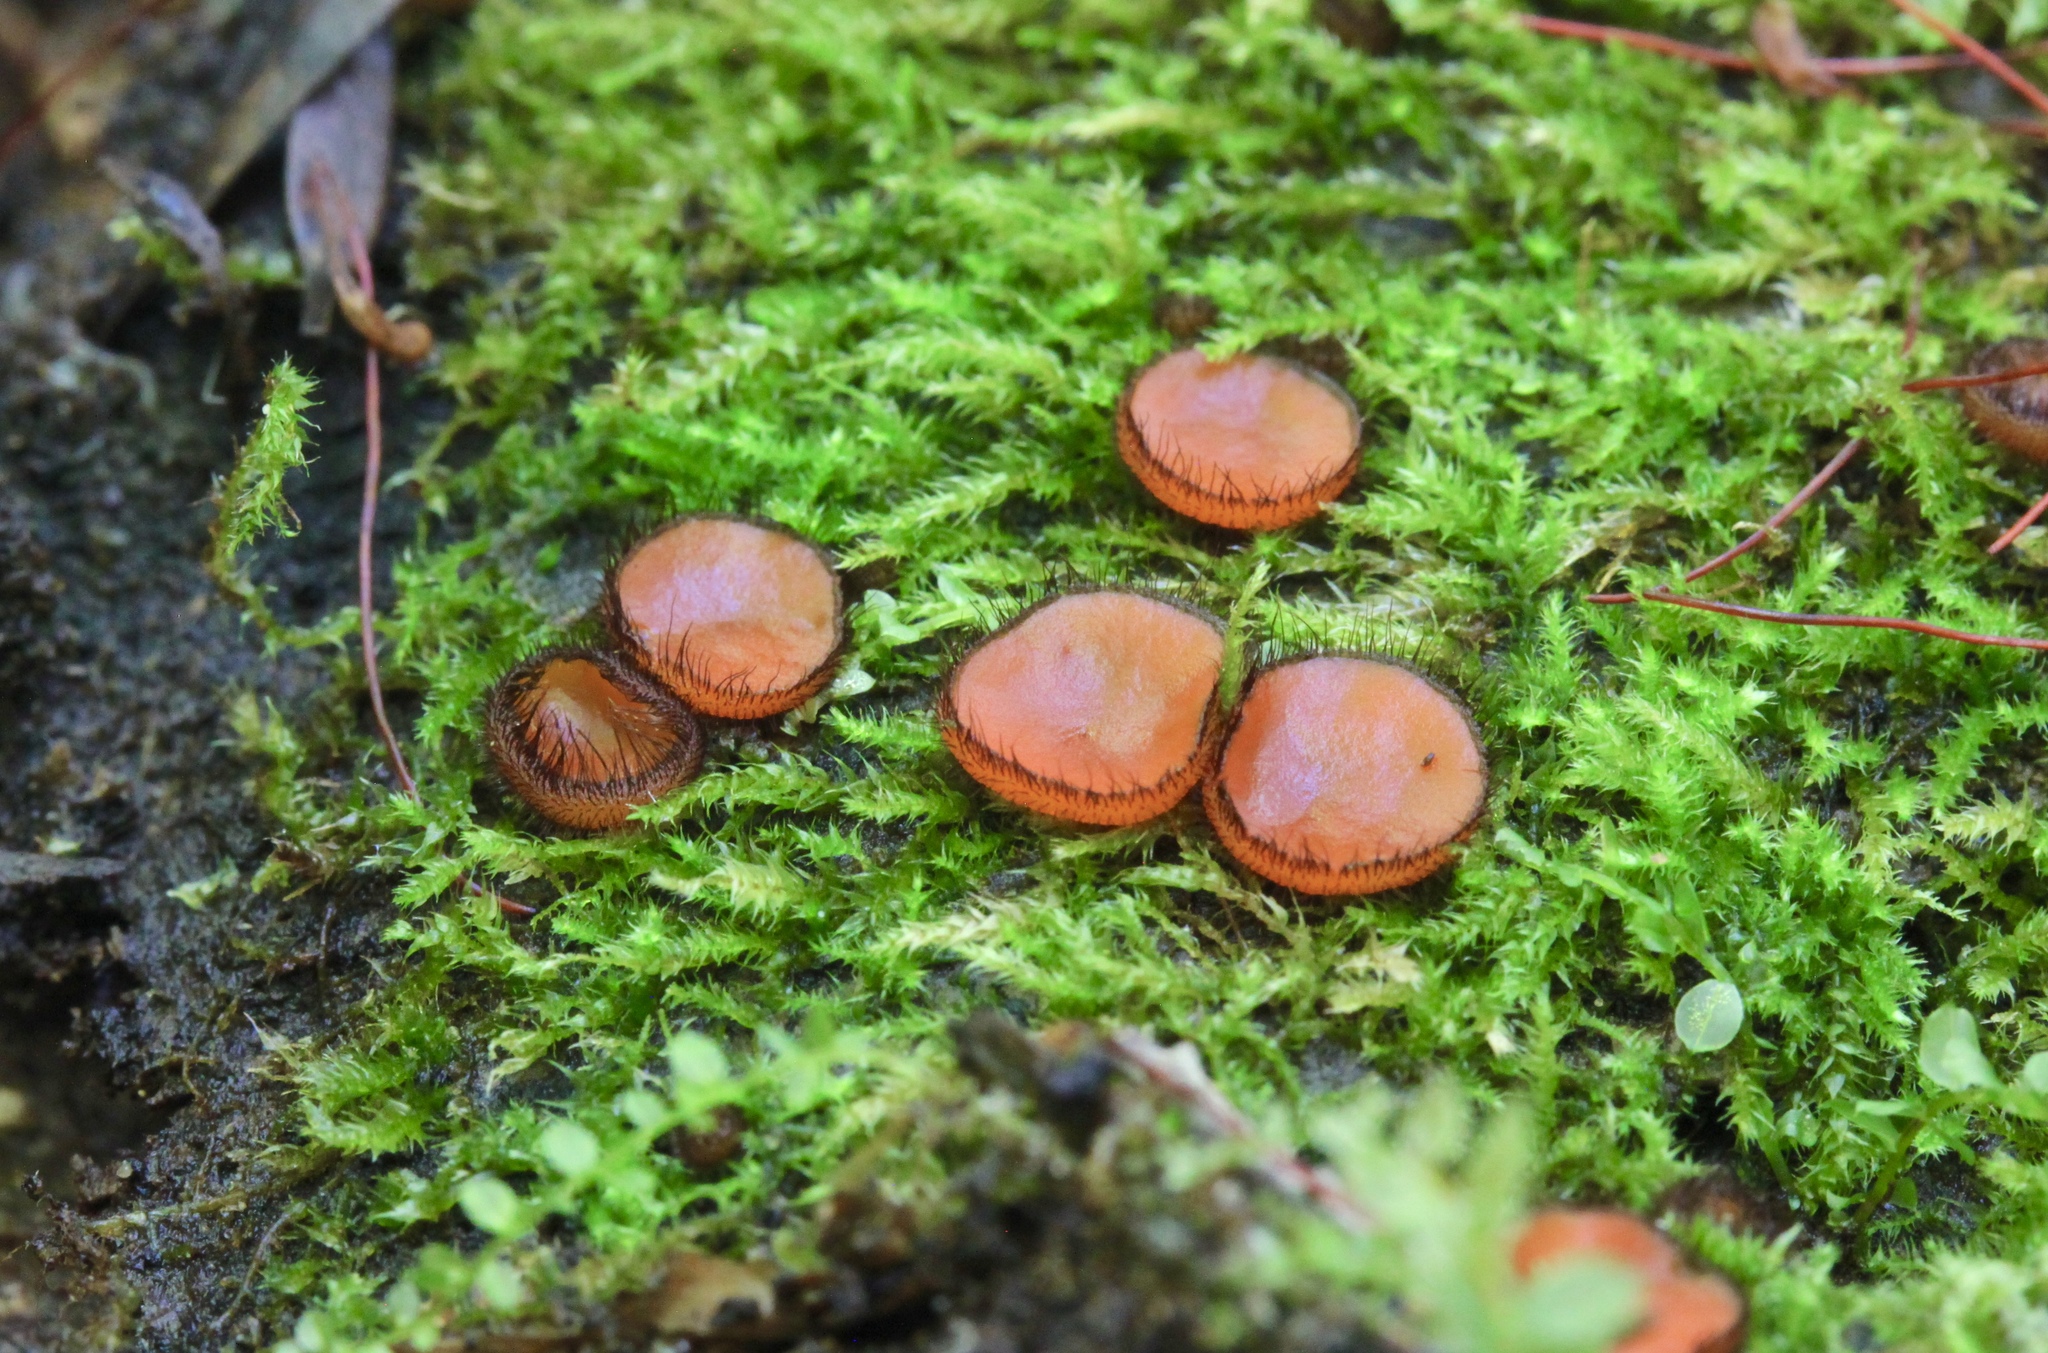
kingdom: Fungi
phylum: Ascomycota
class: Pezizomycetes
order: Pezizales
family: Pyronemataceae
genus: Scutellinia
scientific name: Scutellinia scutellata
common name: Common eyelash
